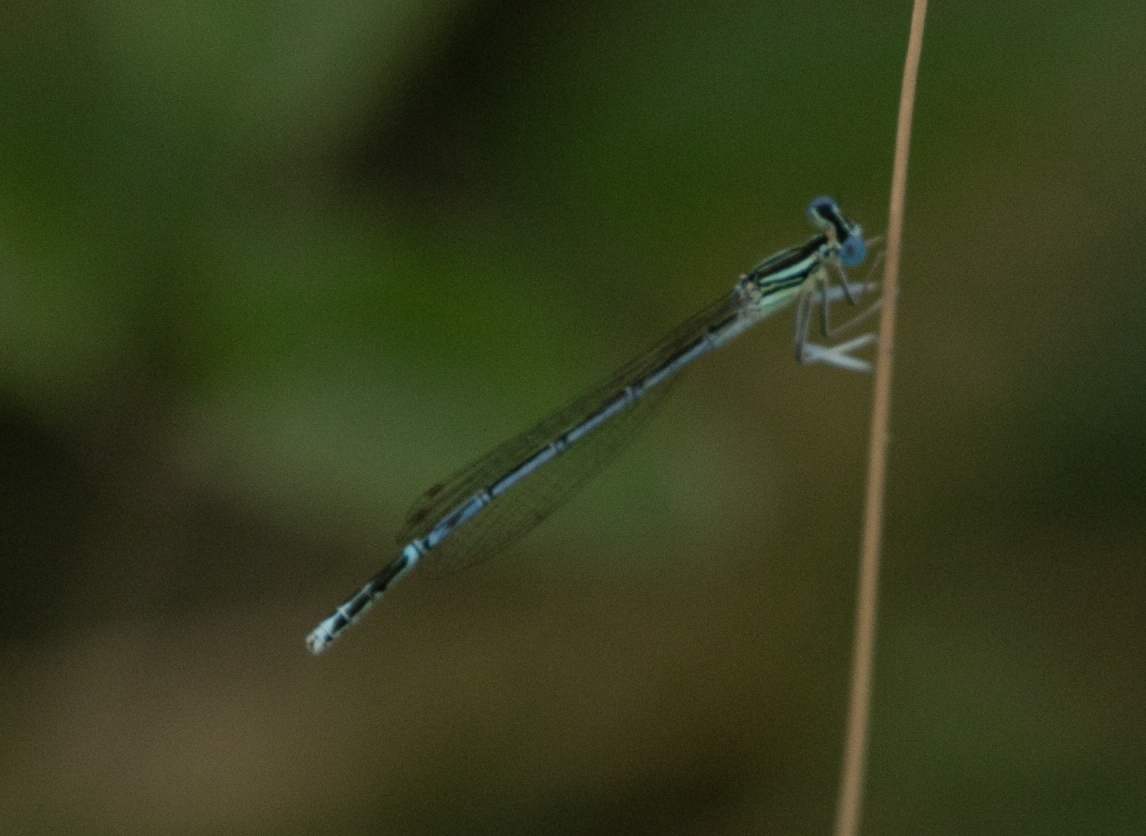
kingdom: Animalia
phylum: Arthropoda
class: Insecta
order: Odonata
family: Platycnemididae
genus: Platycnemis
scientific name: Platycnemis pennipes
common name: White-legged damselfly
